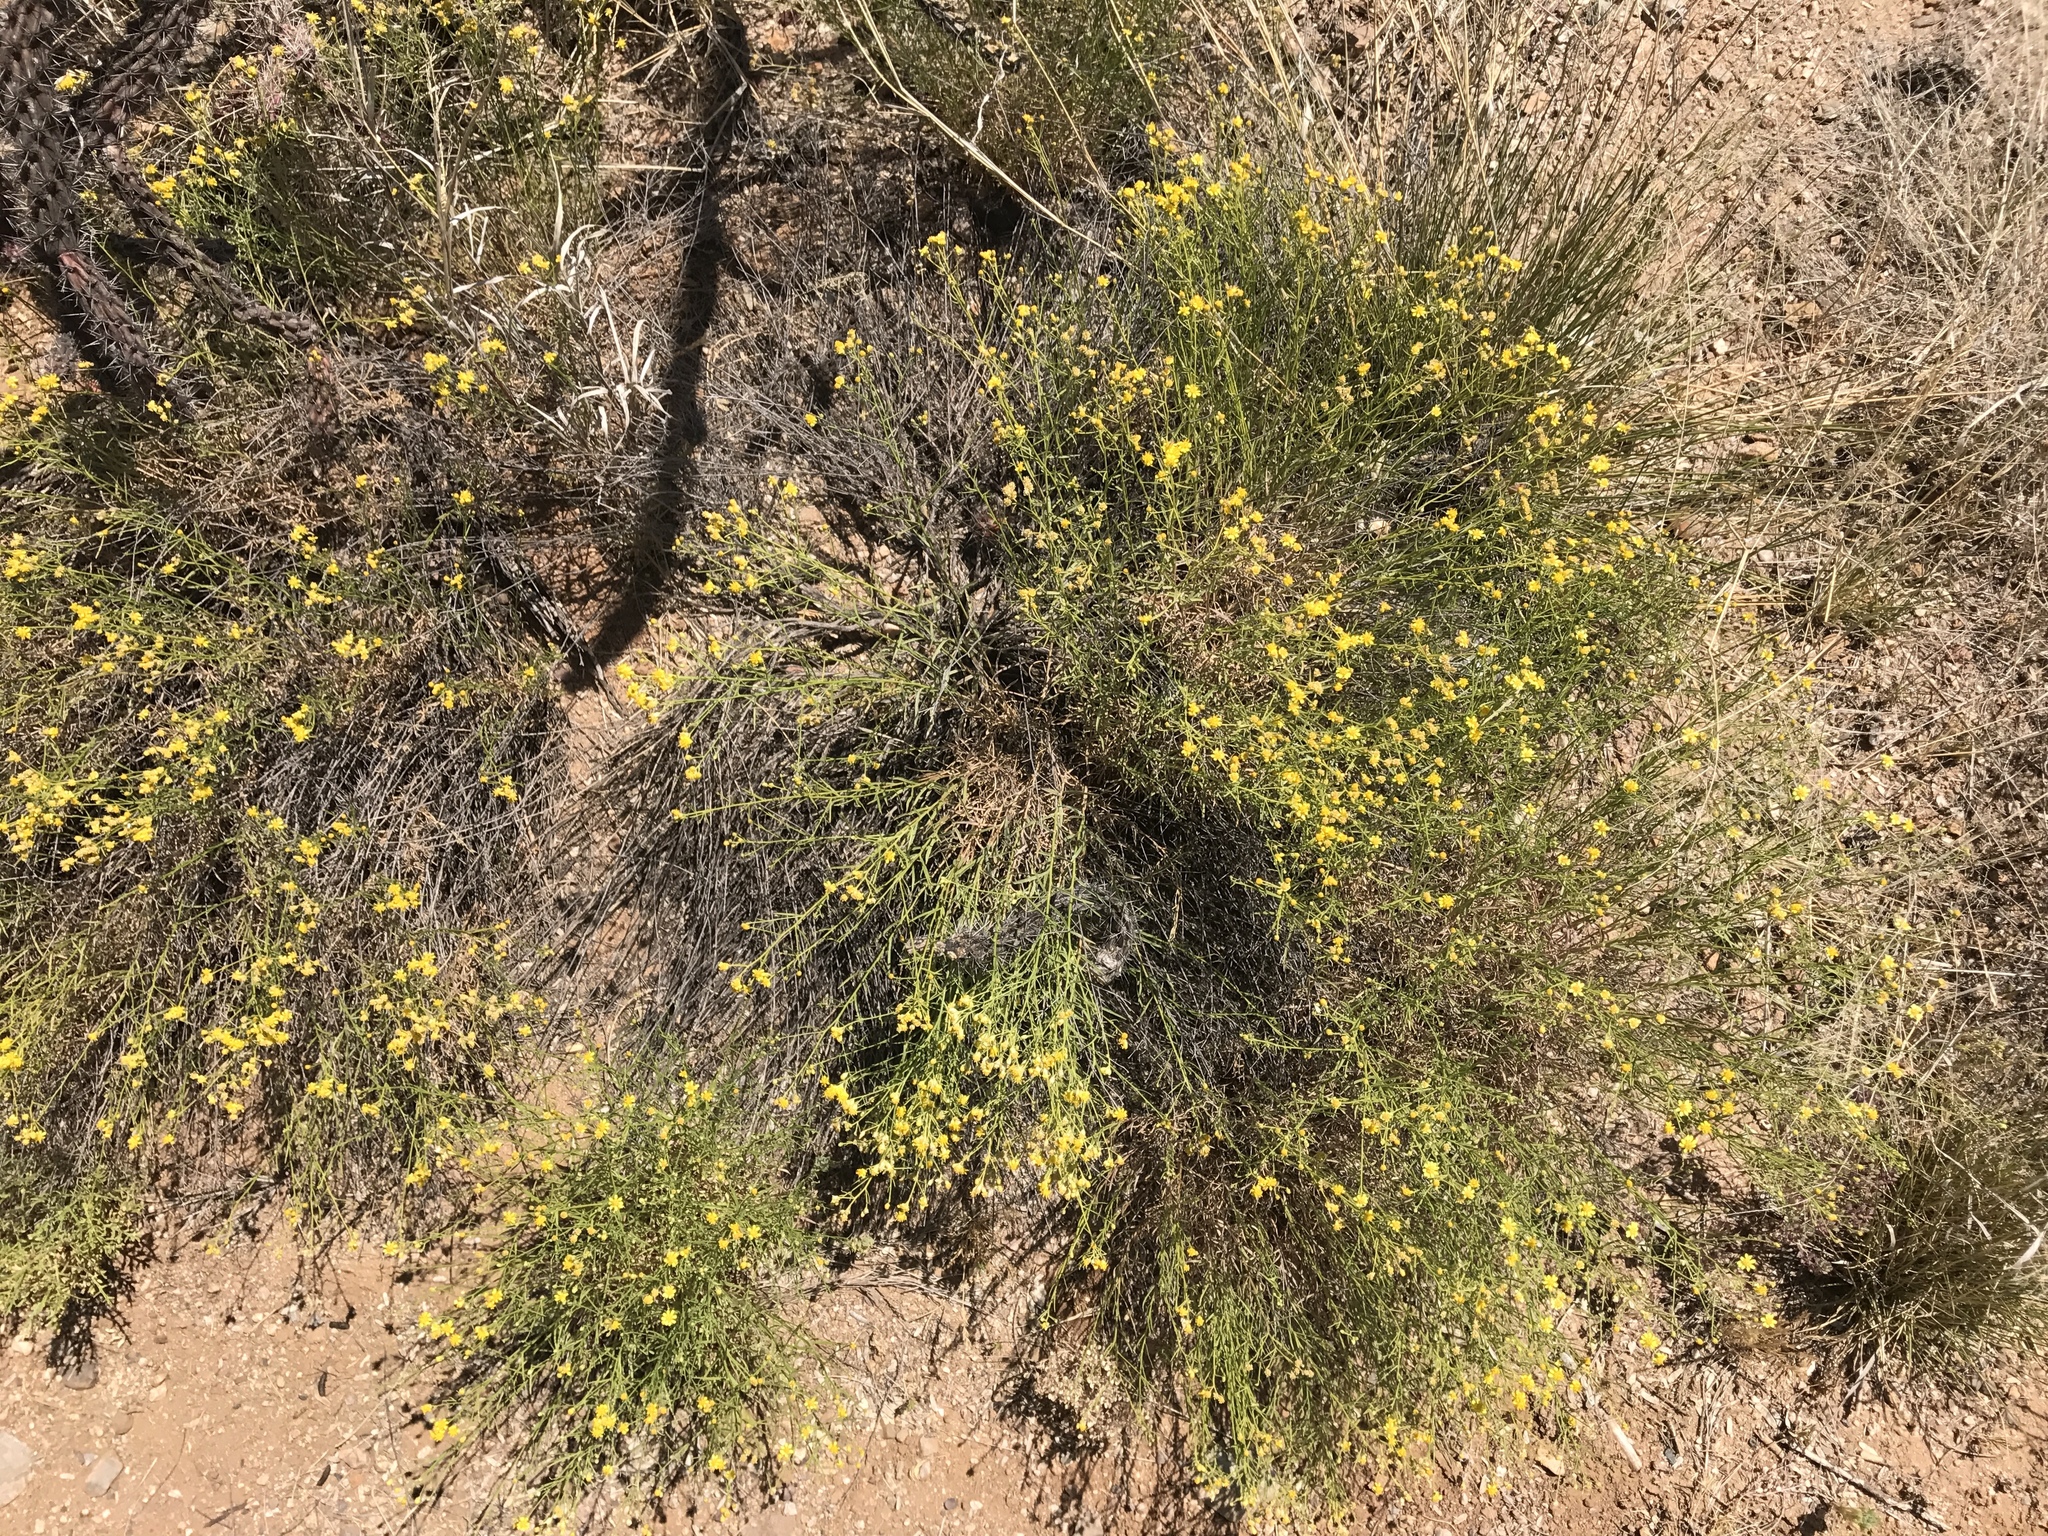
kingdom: Plantae
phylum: Tracheophyta
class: Magnoliopsida
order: Asterales
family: Asteraceae
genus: Gutierrezia
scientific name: Gutierrezia sarothrae
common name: Broom snakeweed
